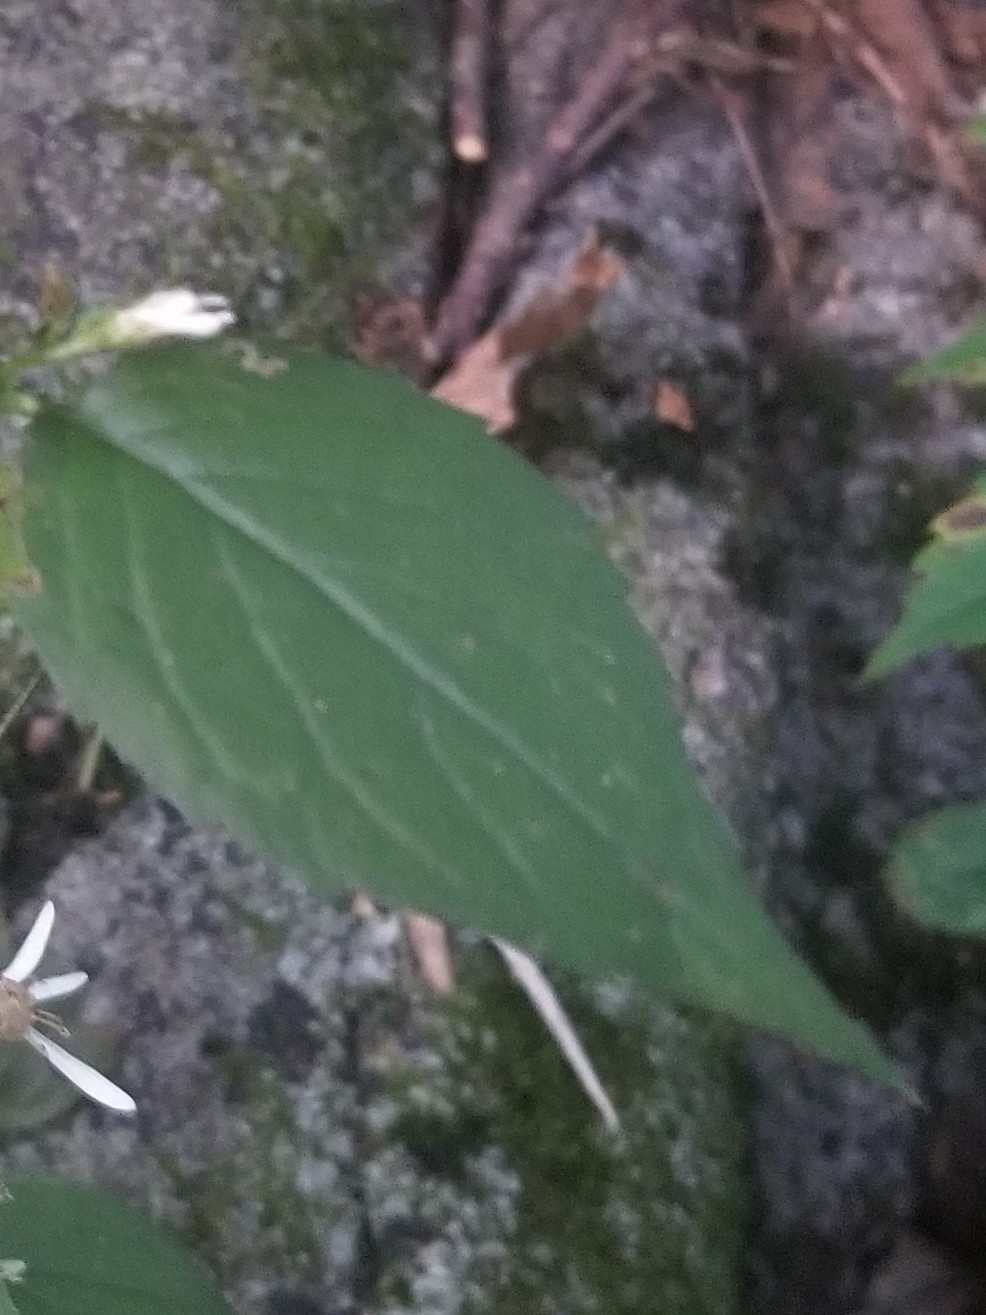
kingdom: Plantae
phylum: Tracheophyta
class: Magnoliopsida
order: Asterales
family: Asteraceae
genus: Eurybia
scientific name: Eurybia divaricata
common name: White wood aster
